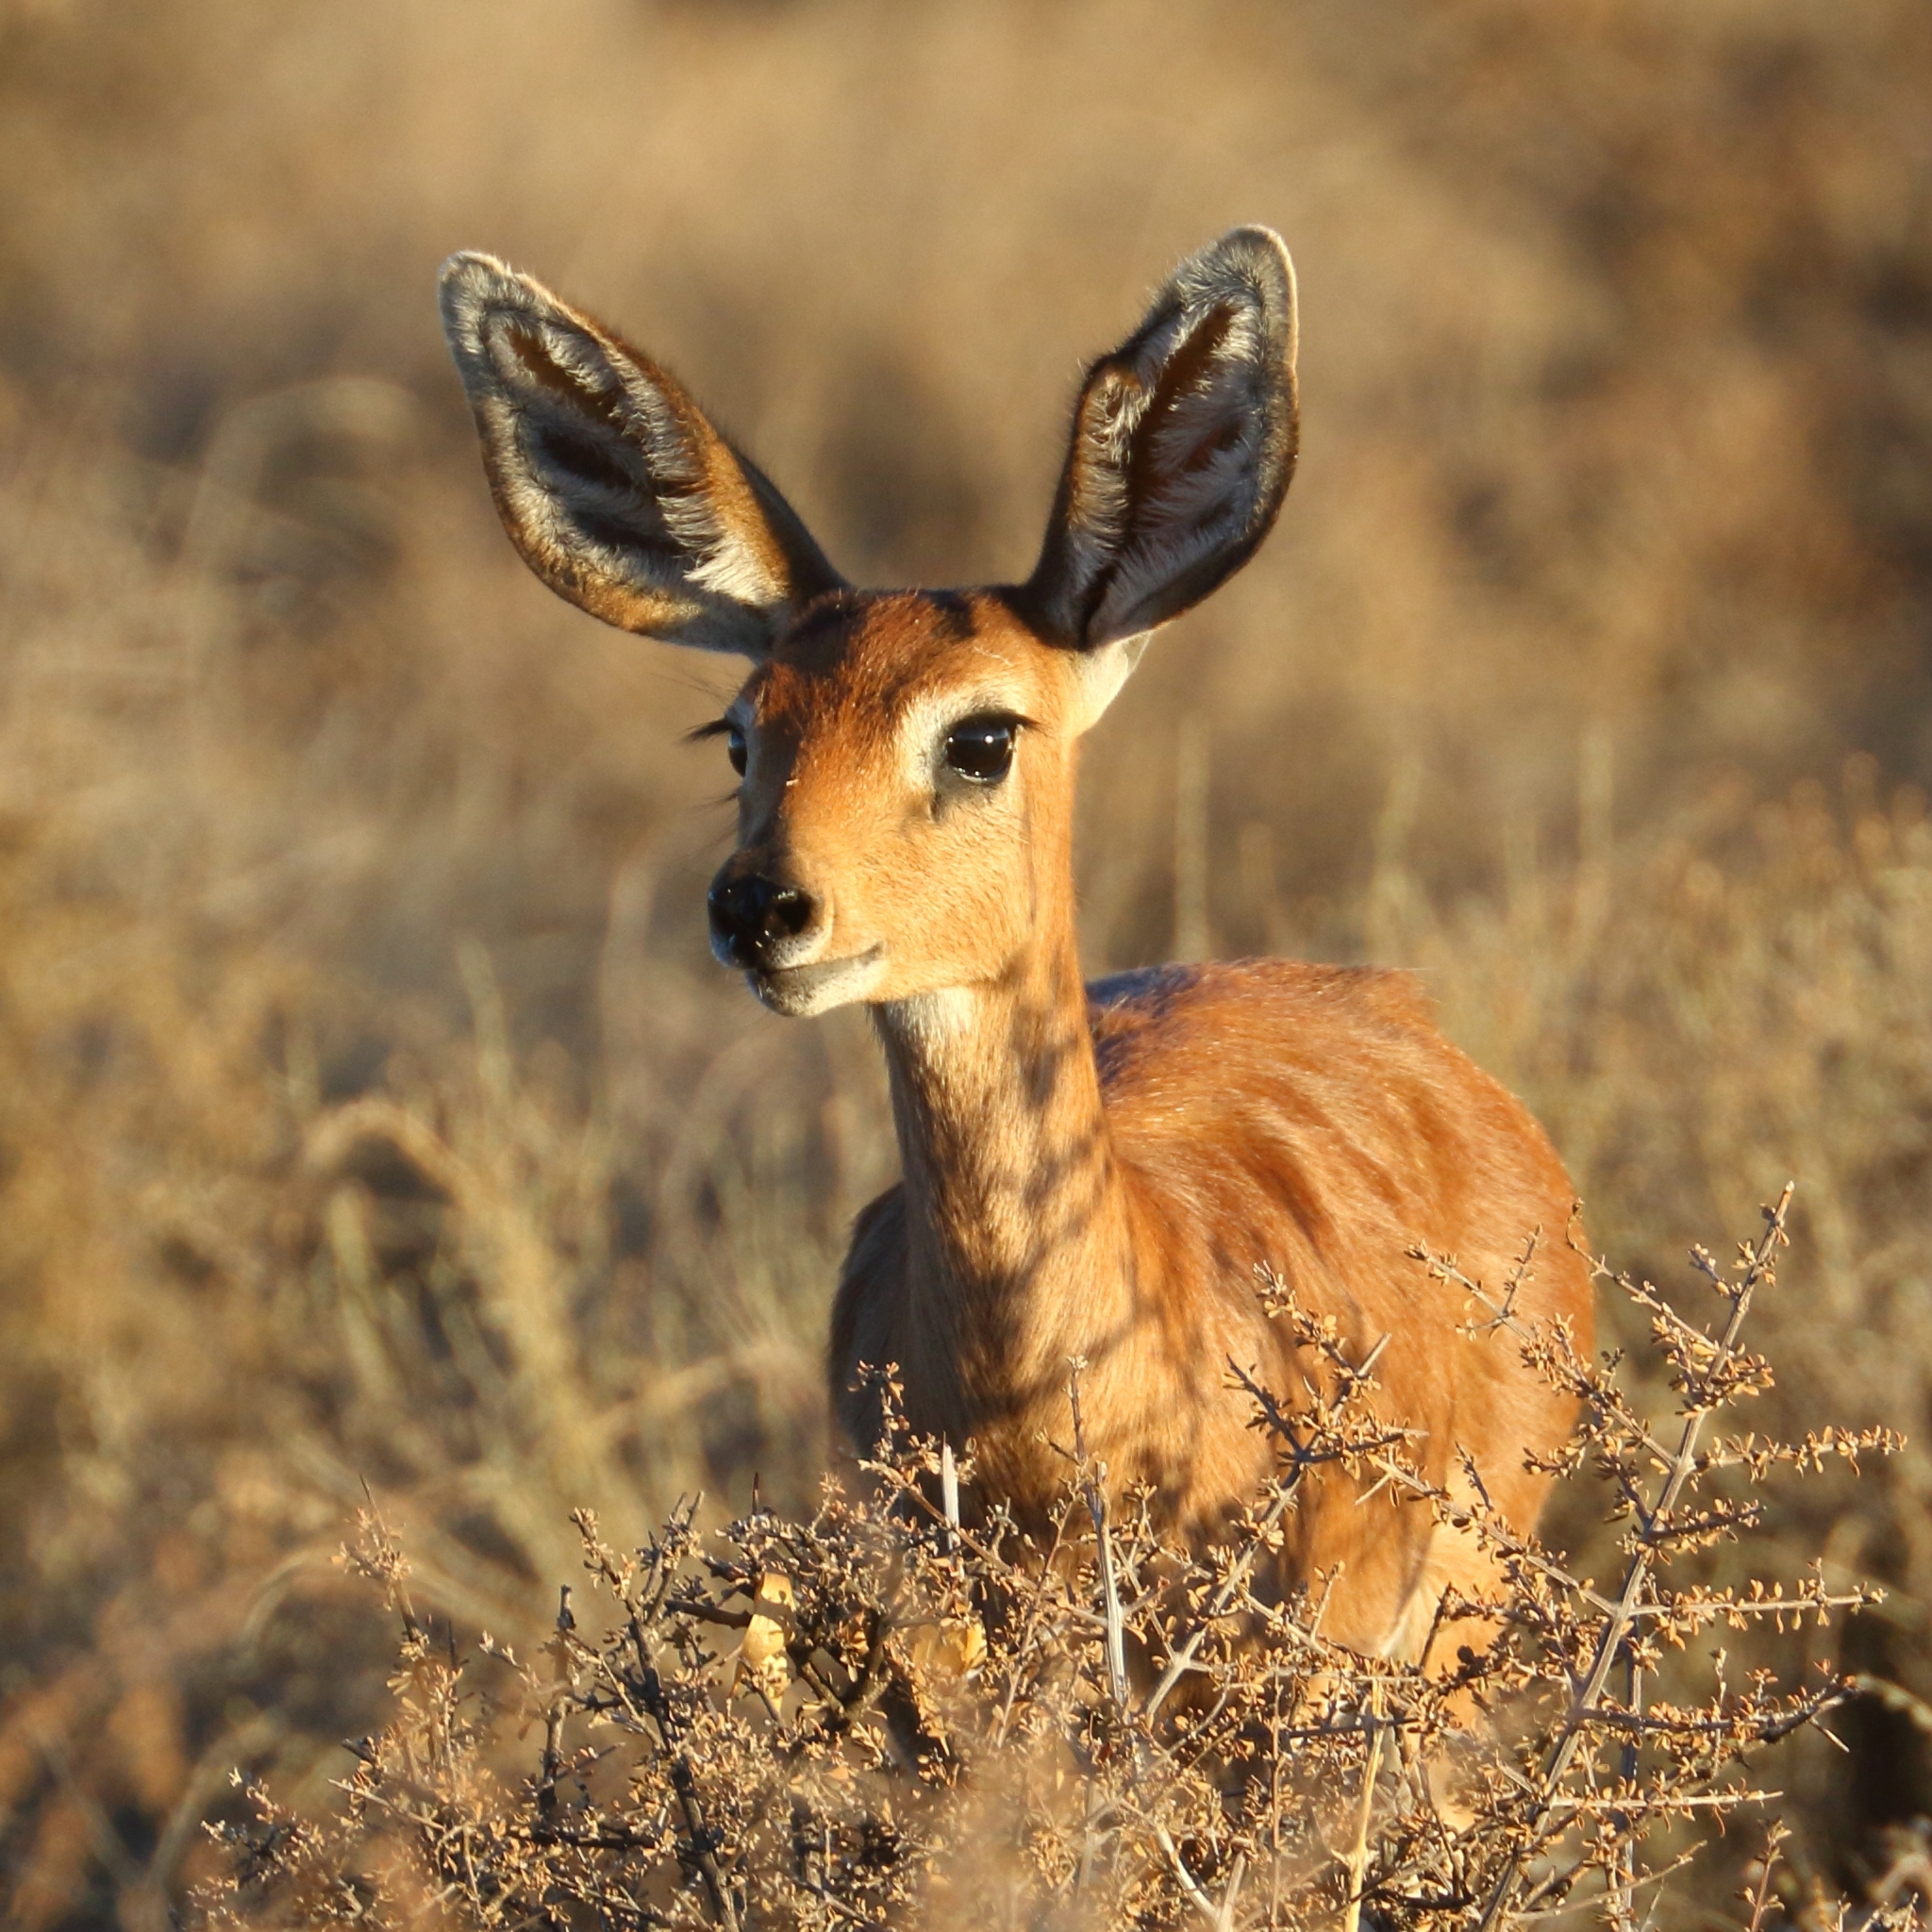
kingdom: Animalia
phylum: Chordata
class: Mammalia
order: Artiodactyla
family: Bovidae
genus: Raphicerus
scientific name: Raphicerus campestris
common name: Steenbok
